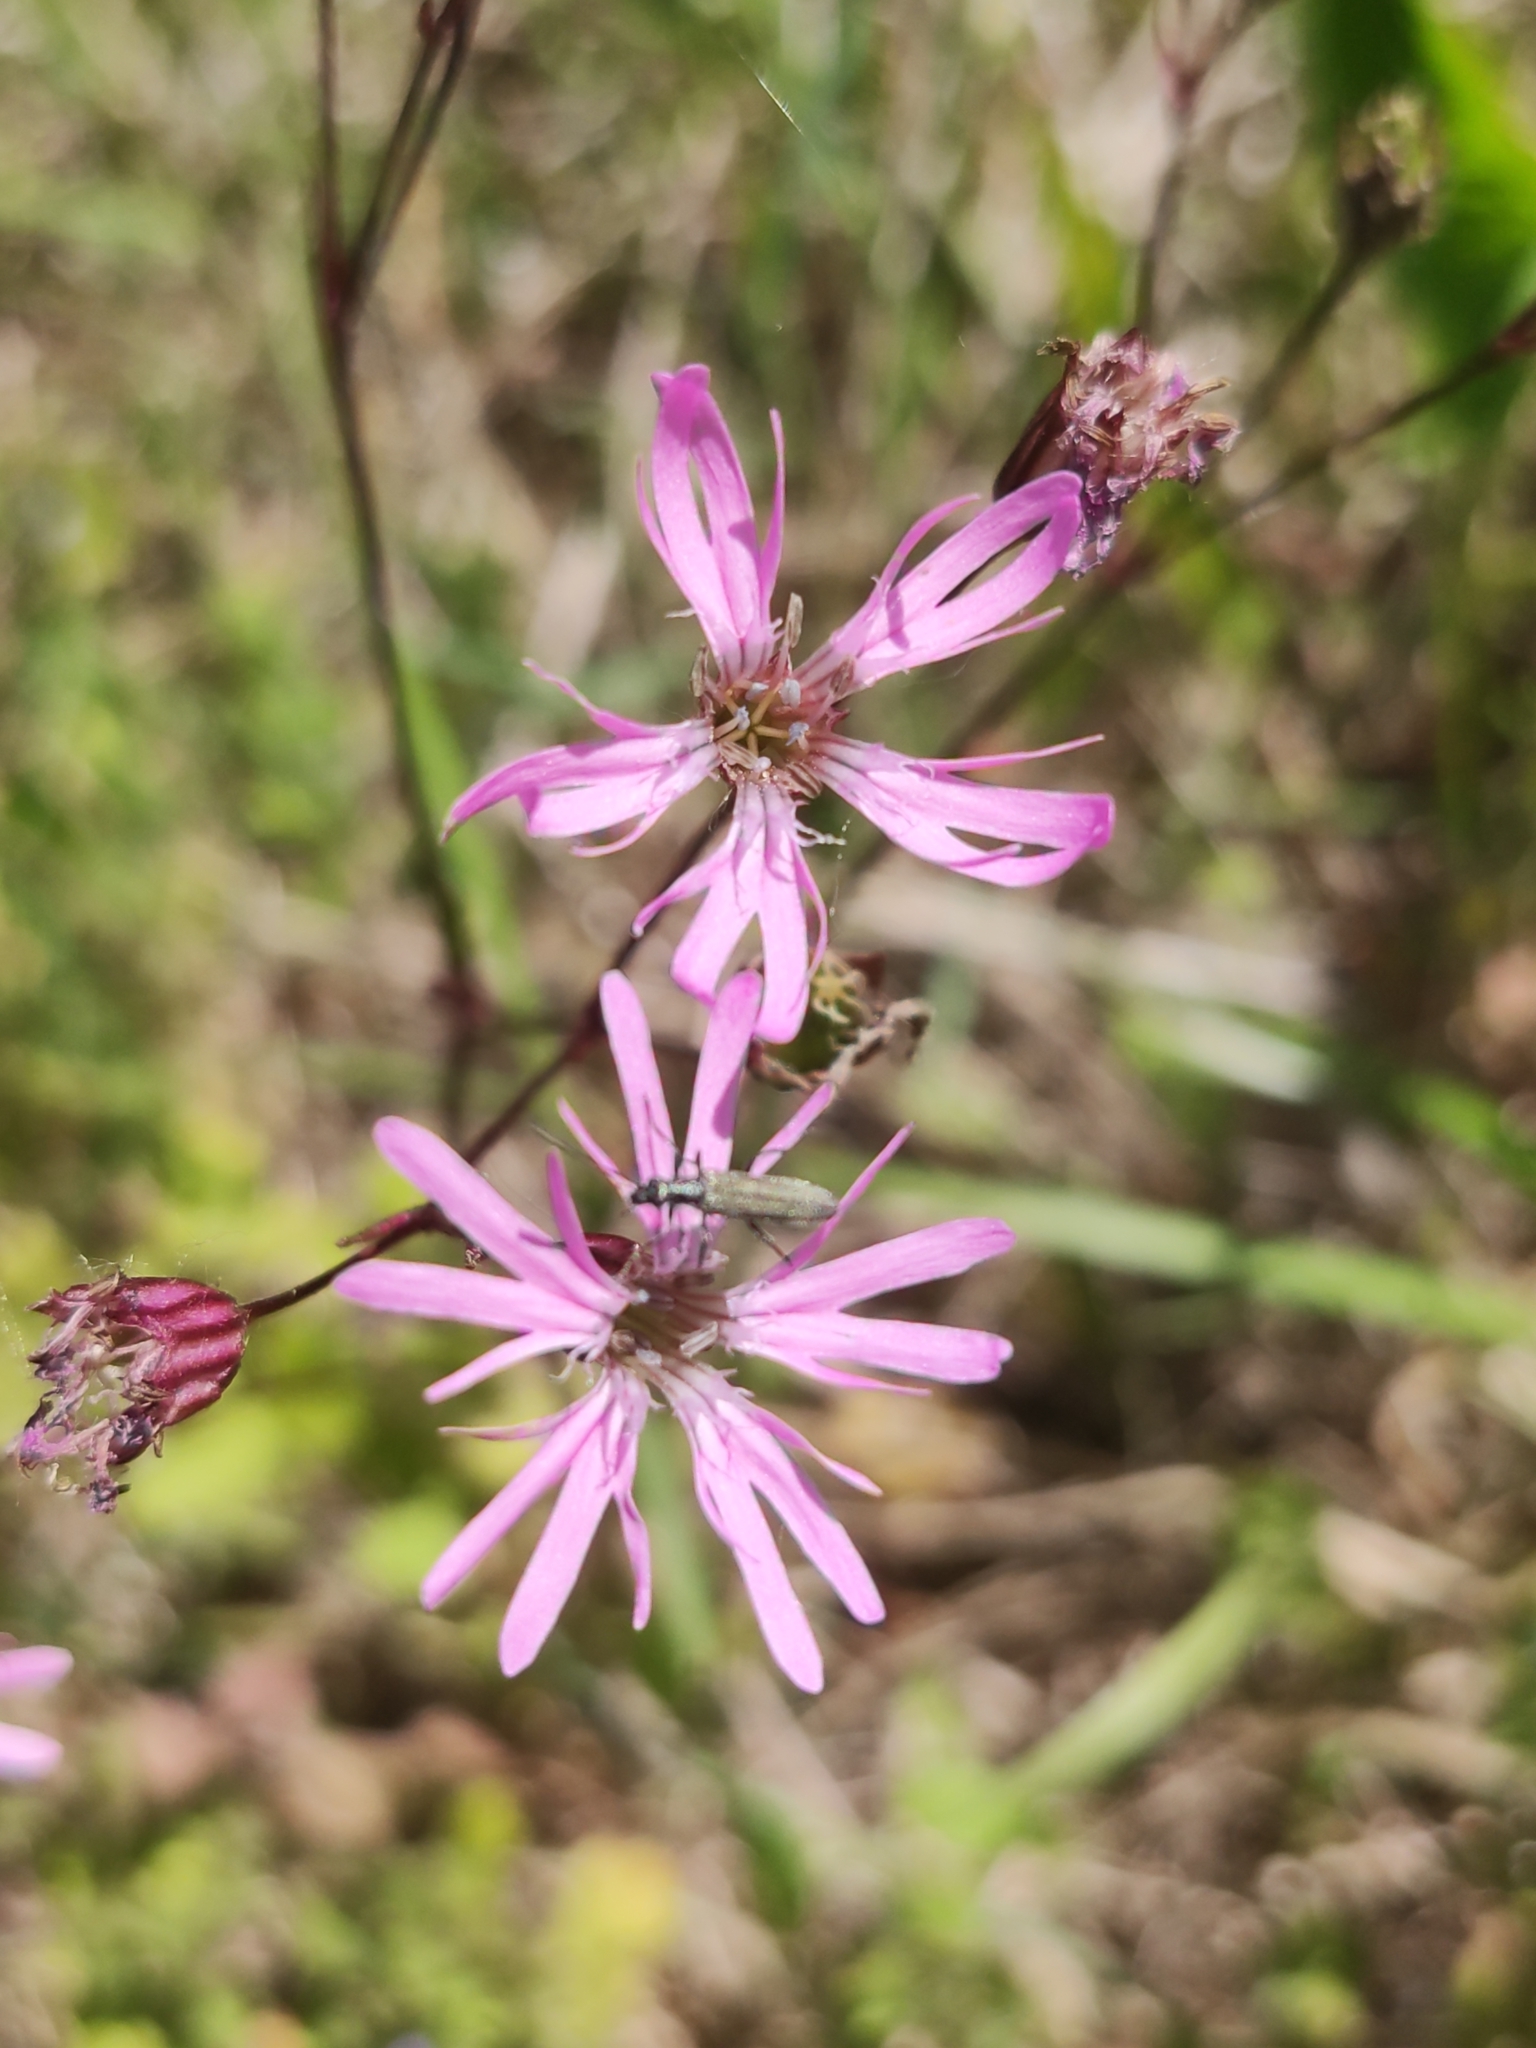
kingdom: Plantae
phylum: Tracheophyta
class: Magnoliopsida
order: Caryophyllales
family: Caryophyllaceae
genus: Silene
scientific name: Silene flos-cuculi
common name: Ragged-robin
